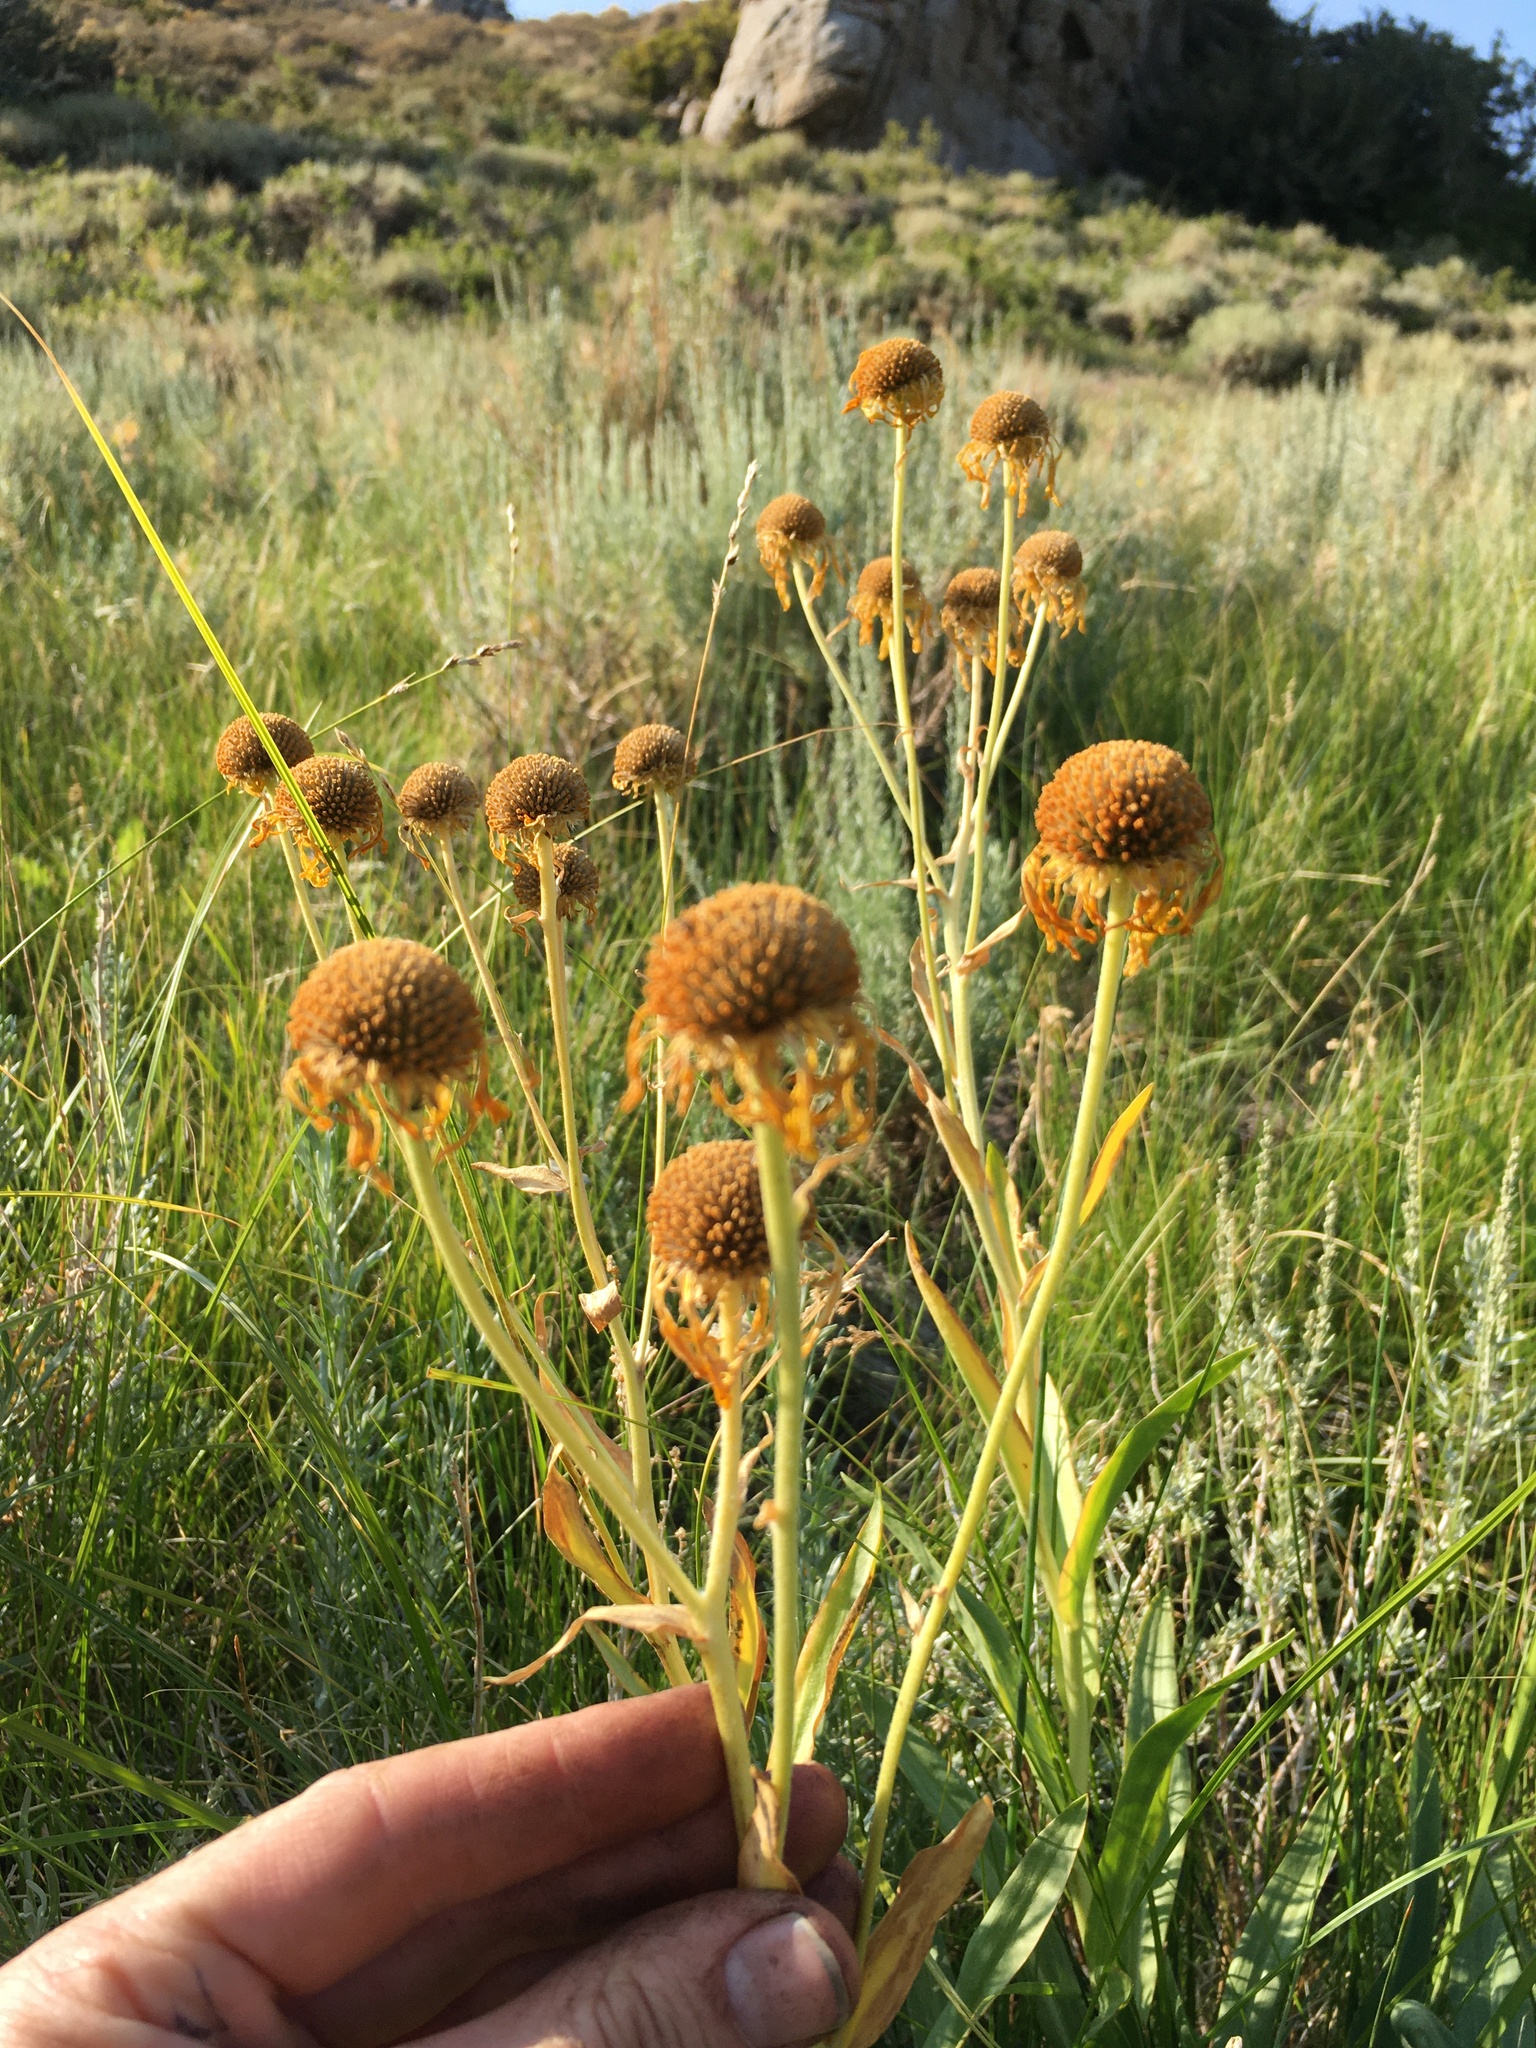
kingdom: Plantae
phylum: Tracheophyta
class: Magnoliopsida
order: Asterales
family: Asteraceae
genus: Hymenoxys
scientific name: Hymenoxys hoopesii
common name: Orange-sneezeweed
